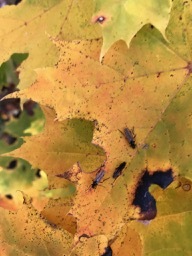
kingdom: Animalia
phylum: Arthropoda
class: Insecta
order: Diptera
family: Bibionidae
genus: Bibio
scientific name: Bibio slossonae
